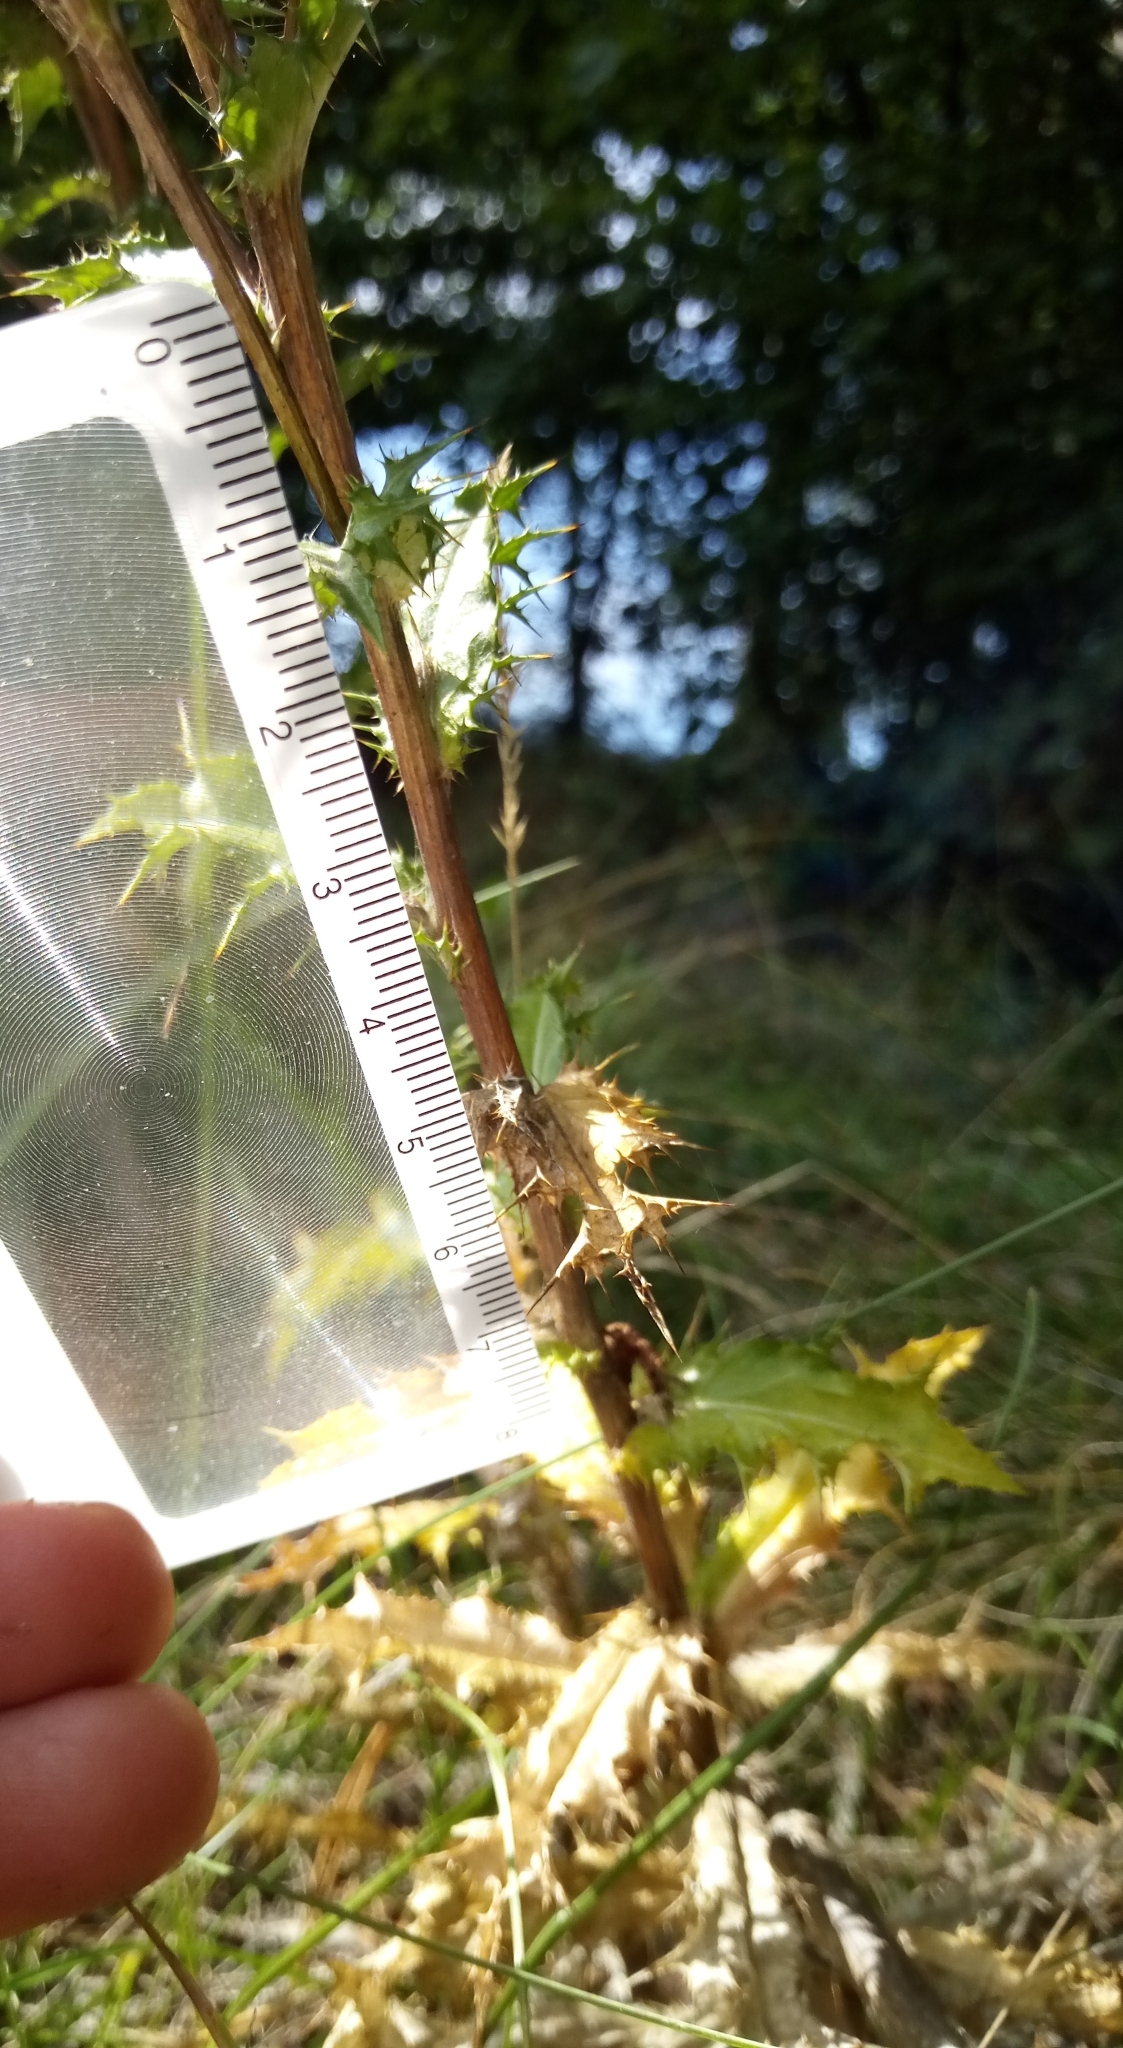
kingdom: Plantae
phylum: Tracheophyta
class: Magnoliopsida
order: Asterales
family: Asteraceae
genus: Carlina
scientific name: Carlina vulgaris
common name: Carline thistle
